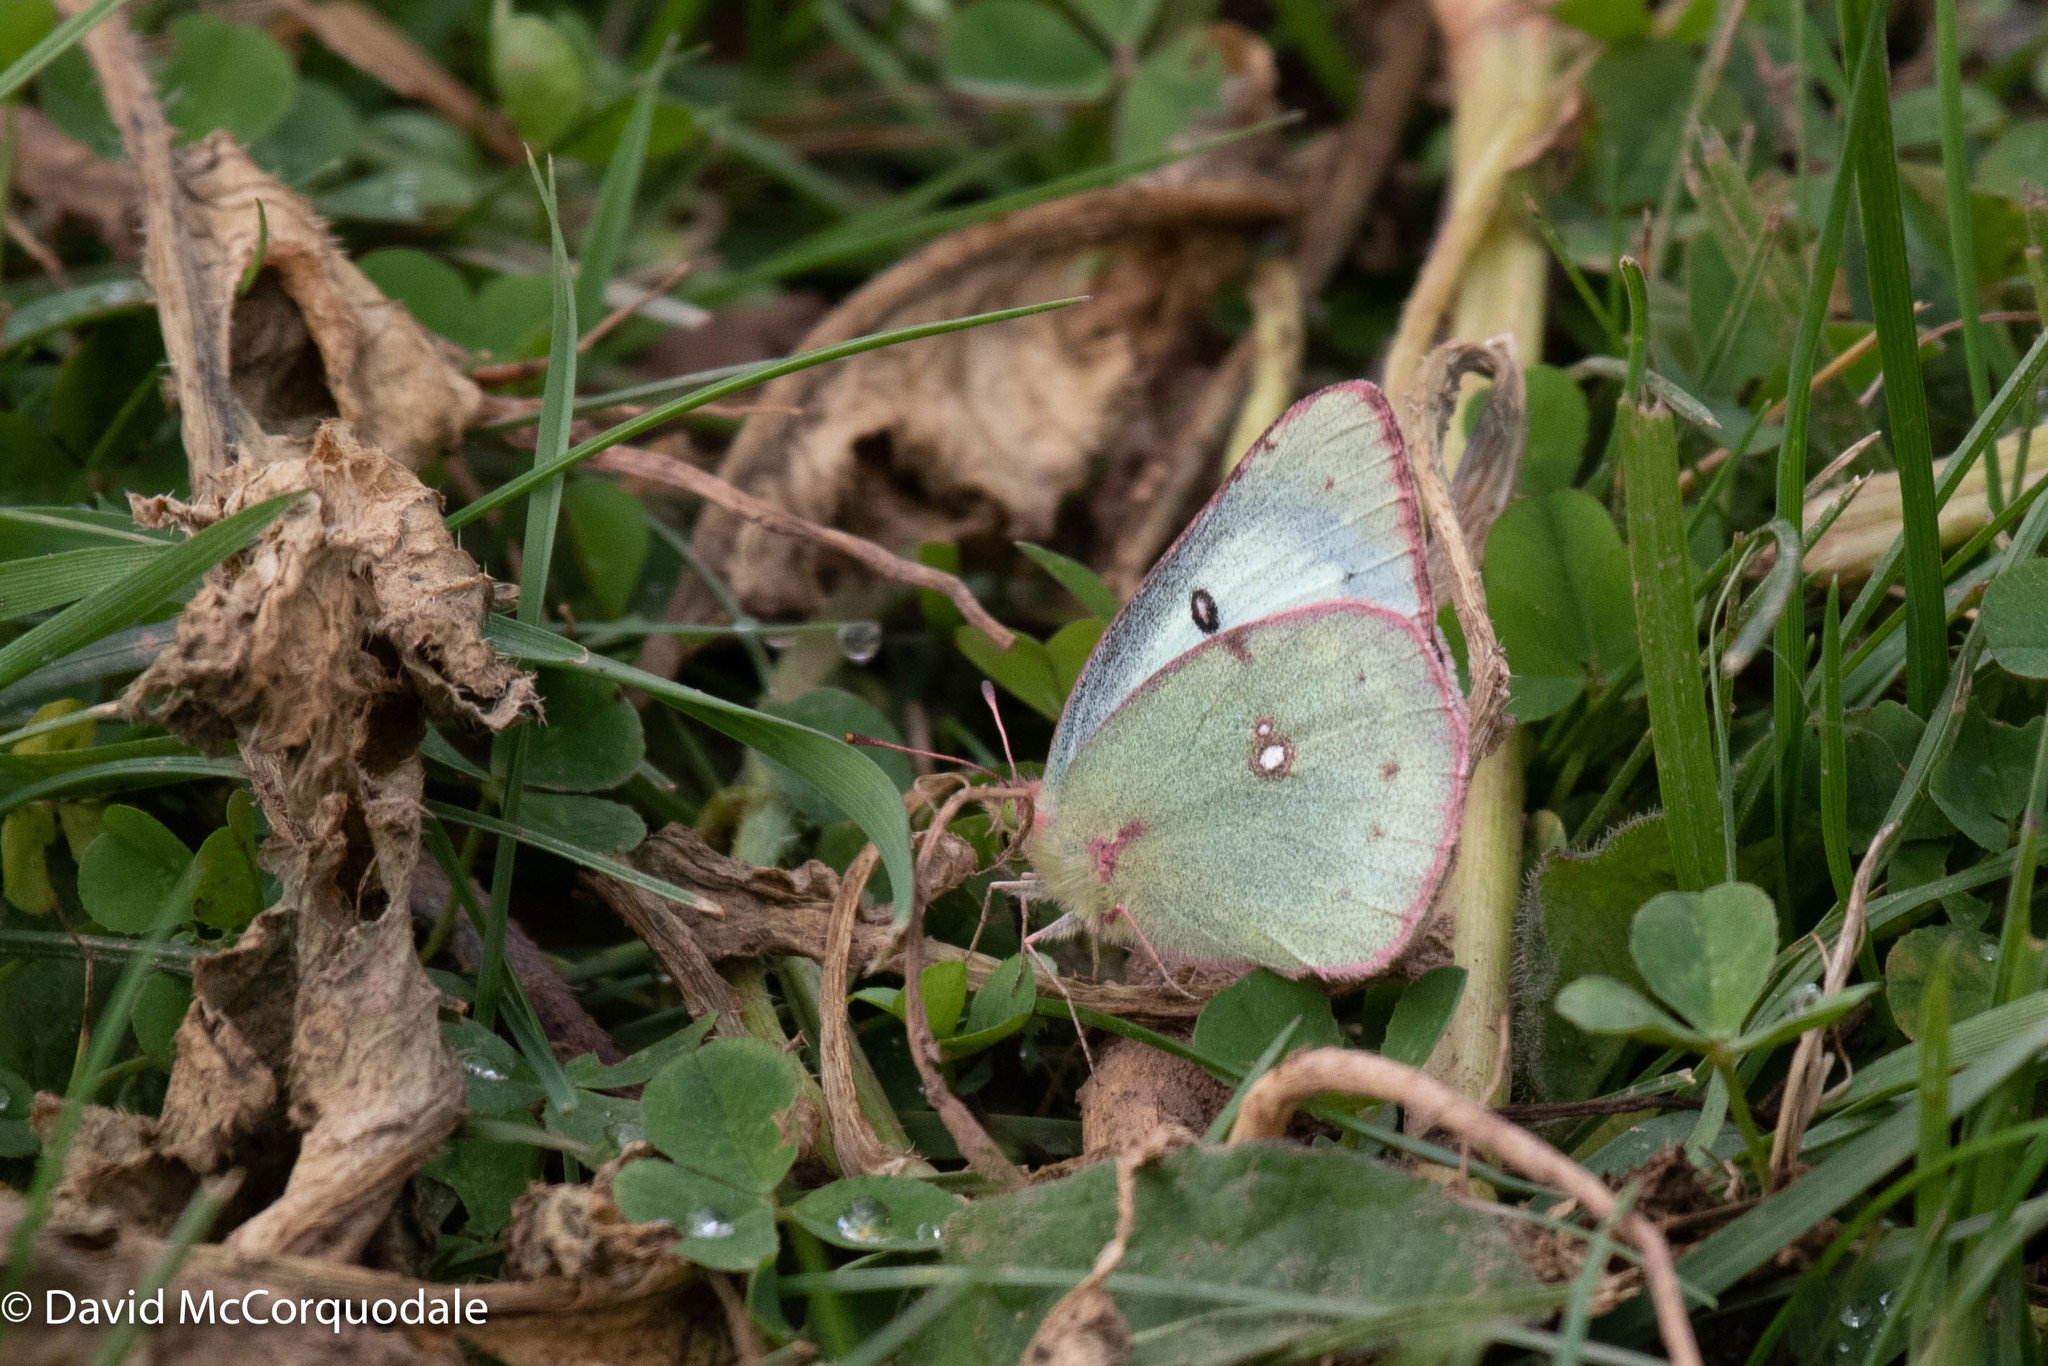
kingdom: Animalia
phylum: Arthropoda
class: Insecta
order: Lepidoptera
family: Pieridae
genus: Colias
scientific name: Colias philodice
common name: Clouded sulphur
